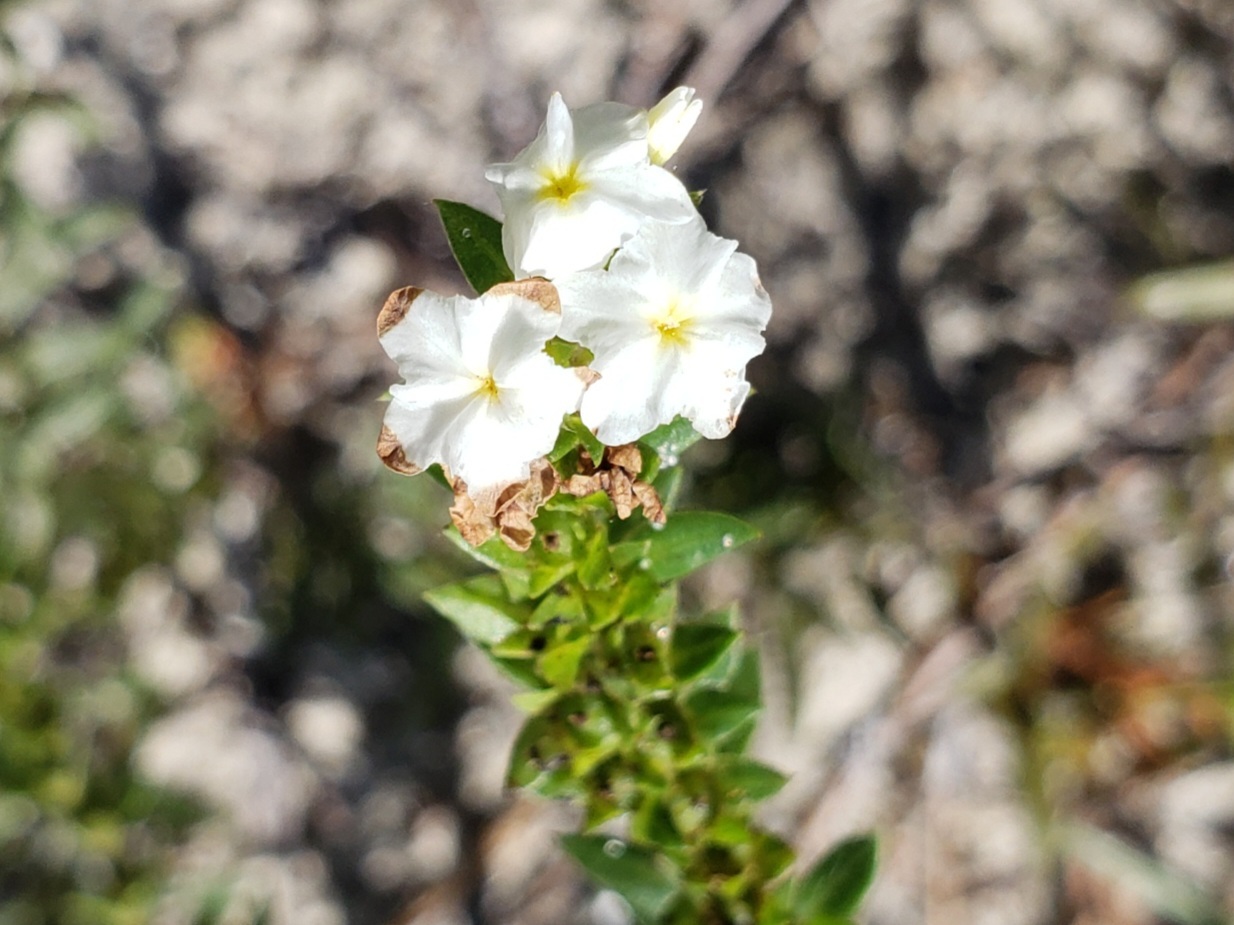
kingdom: Plantae
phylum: Tracheophyta
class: Magnoliopsida
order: Boraginales
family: Heliotropiaceae
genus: Euploca
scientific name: Euploca polyphylla
